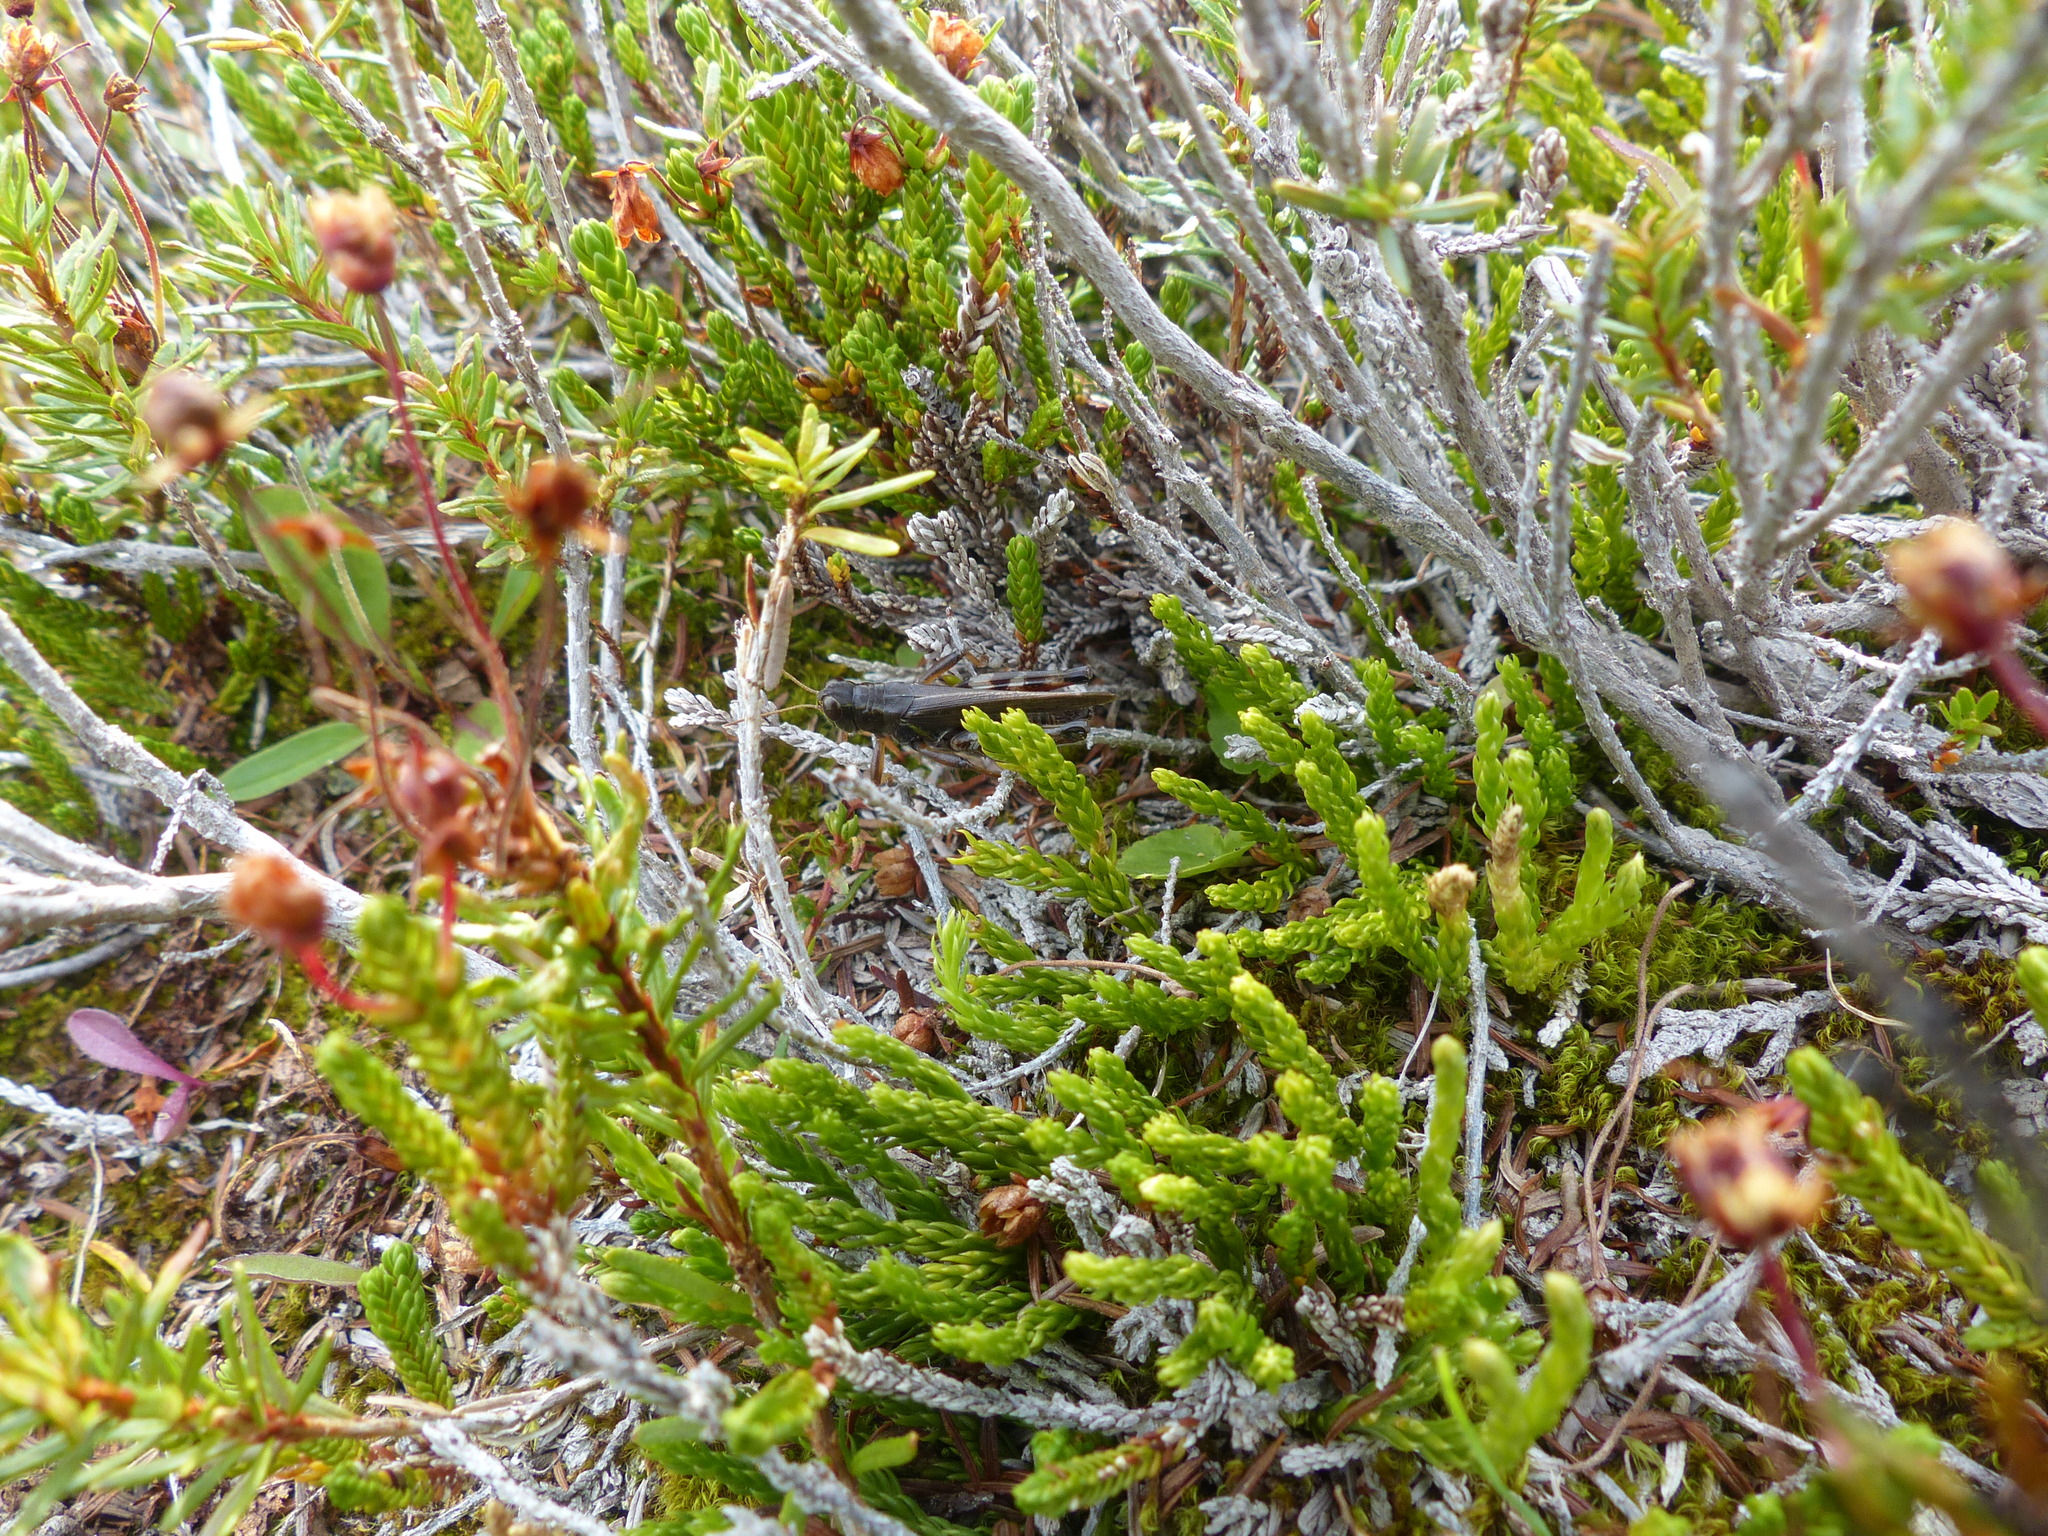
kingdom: Animalia
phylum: Arthropoda
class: Insecta
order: Orthoptera
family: Acrididae
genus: Melanoplus
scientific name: Melanoplus sanguinipes
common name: Migratory grasshopper
